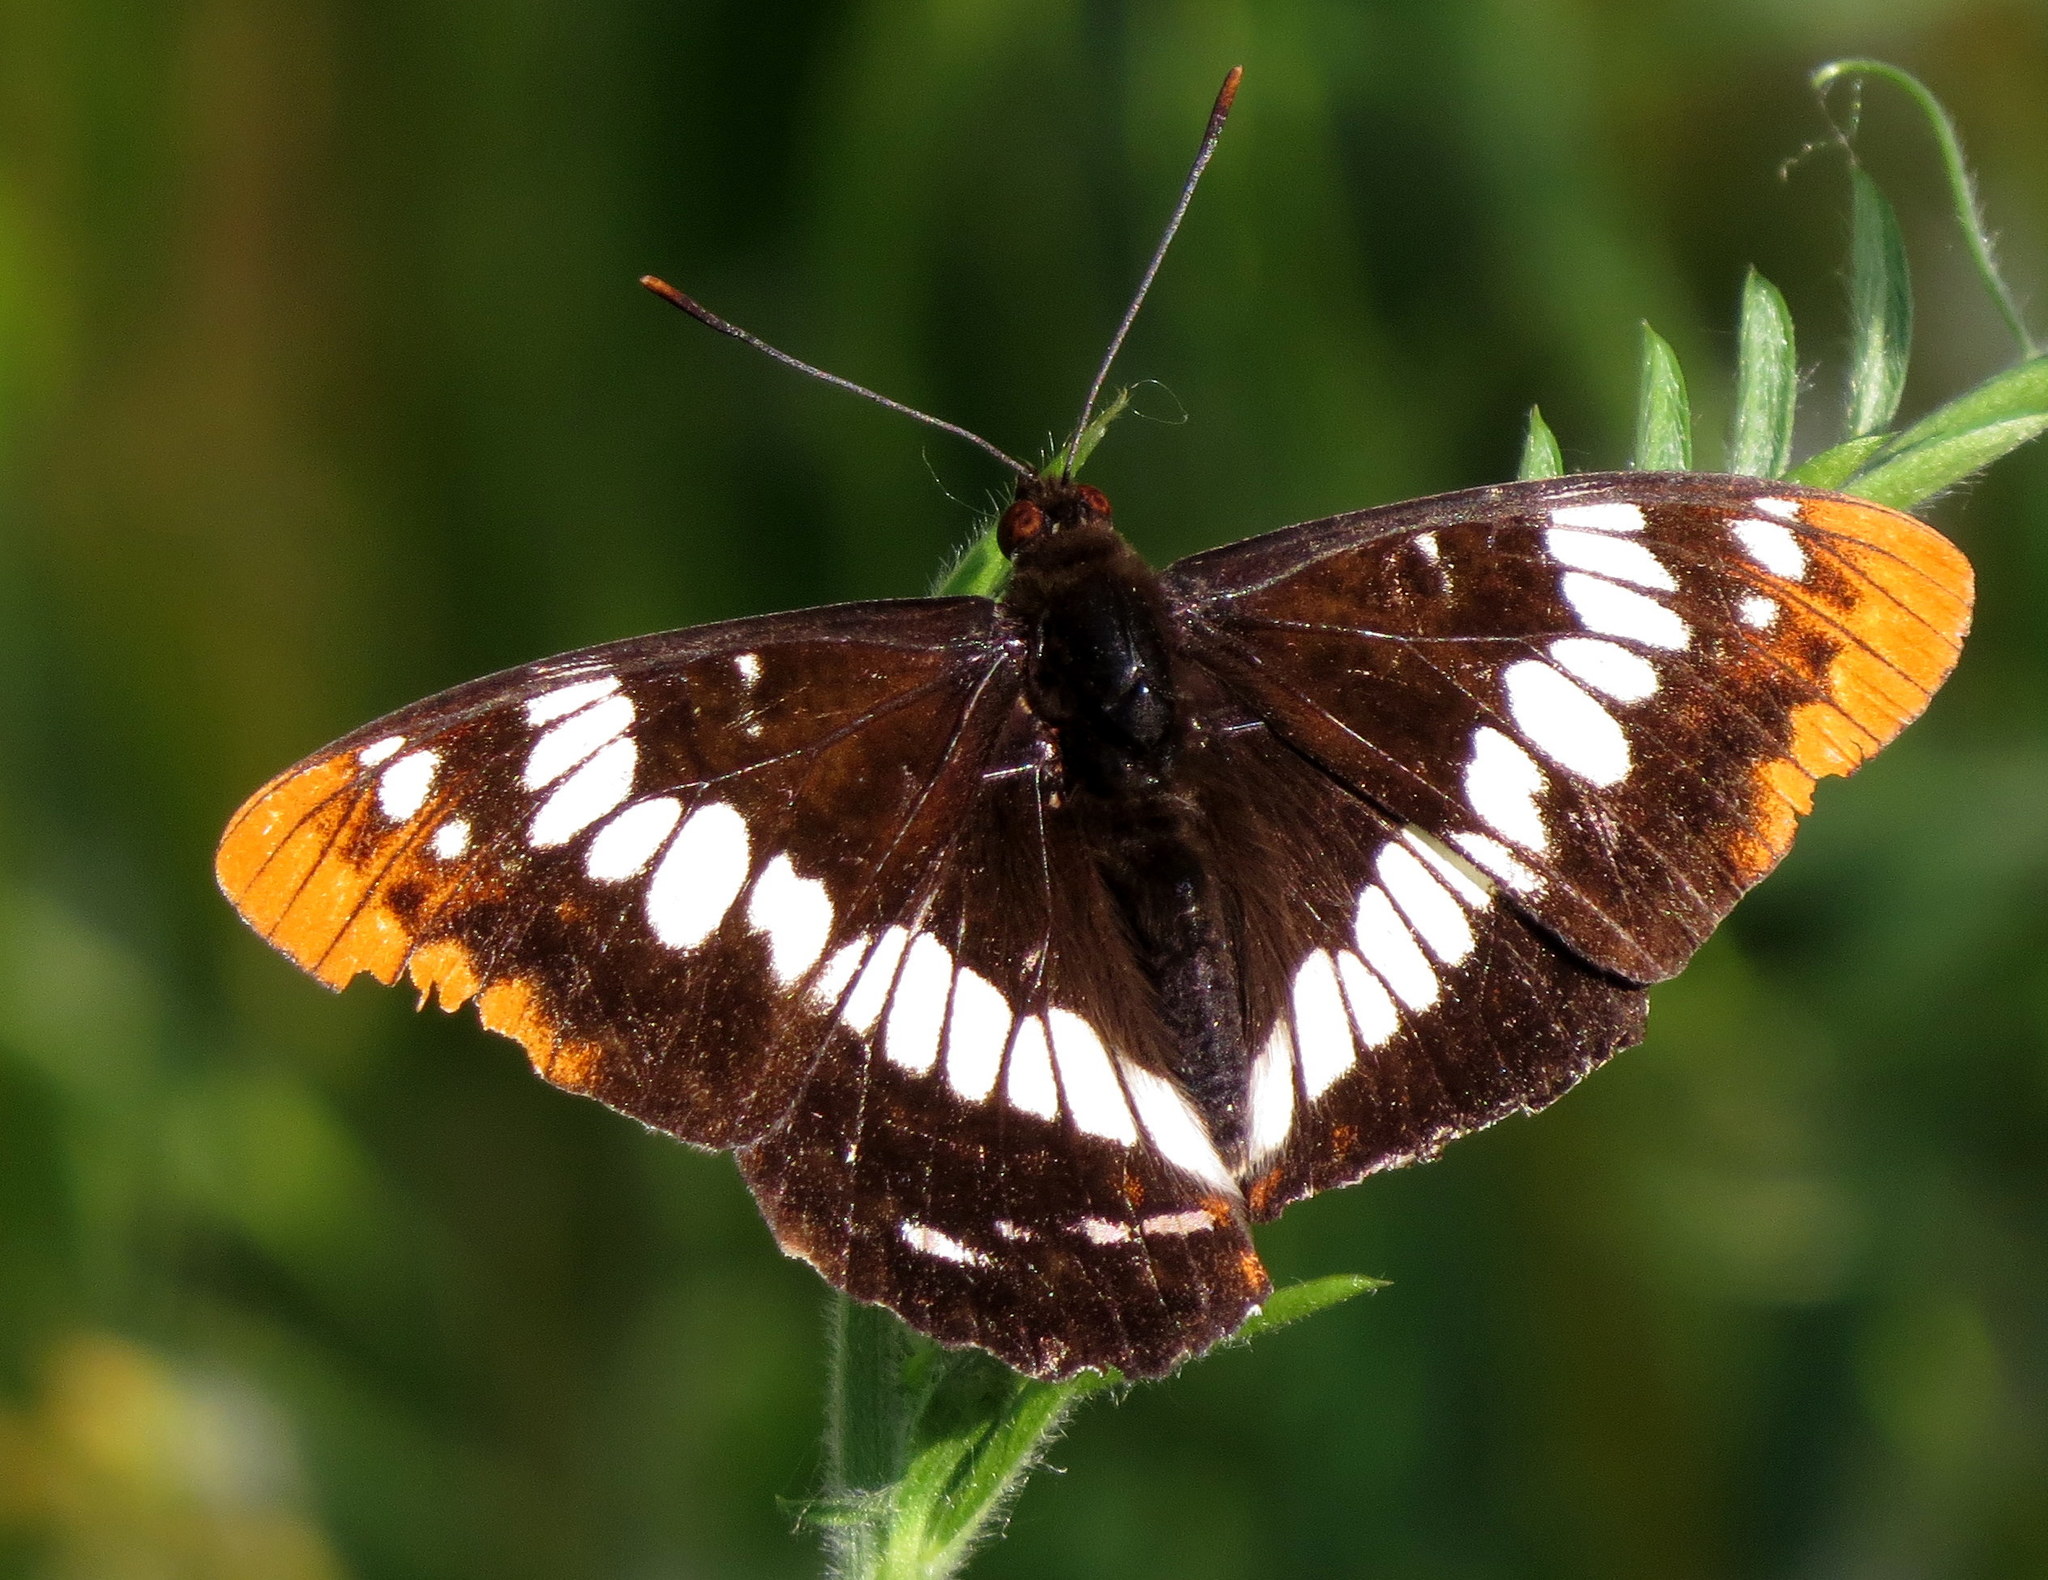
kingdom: Animalia
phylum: Arthropoda
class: Insecta
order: Lepidoptera
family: Nymphalidae
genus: Limenitis
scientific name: Limenitis lorquini
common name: Lorquin's admiral
